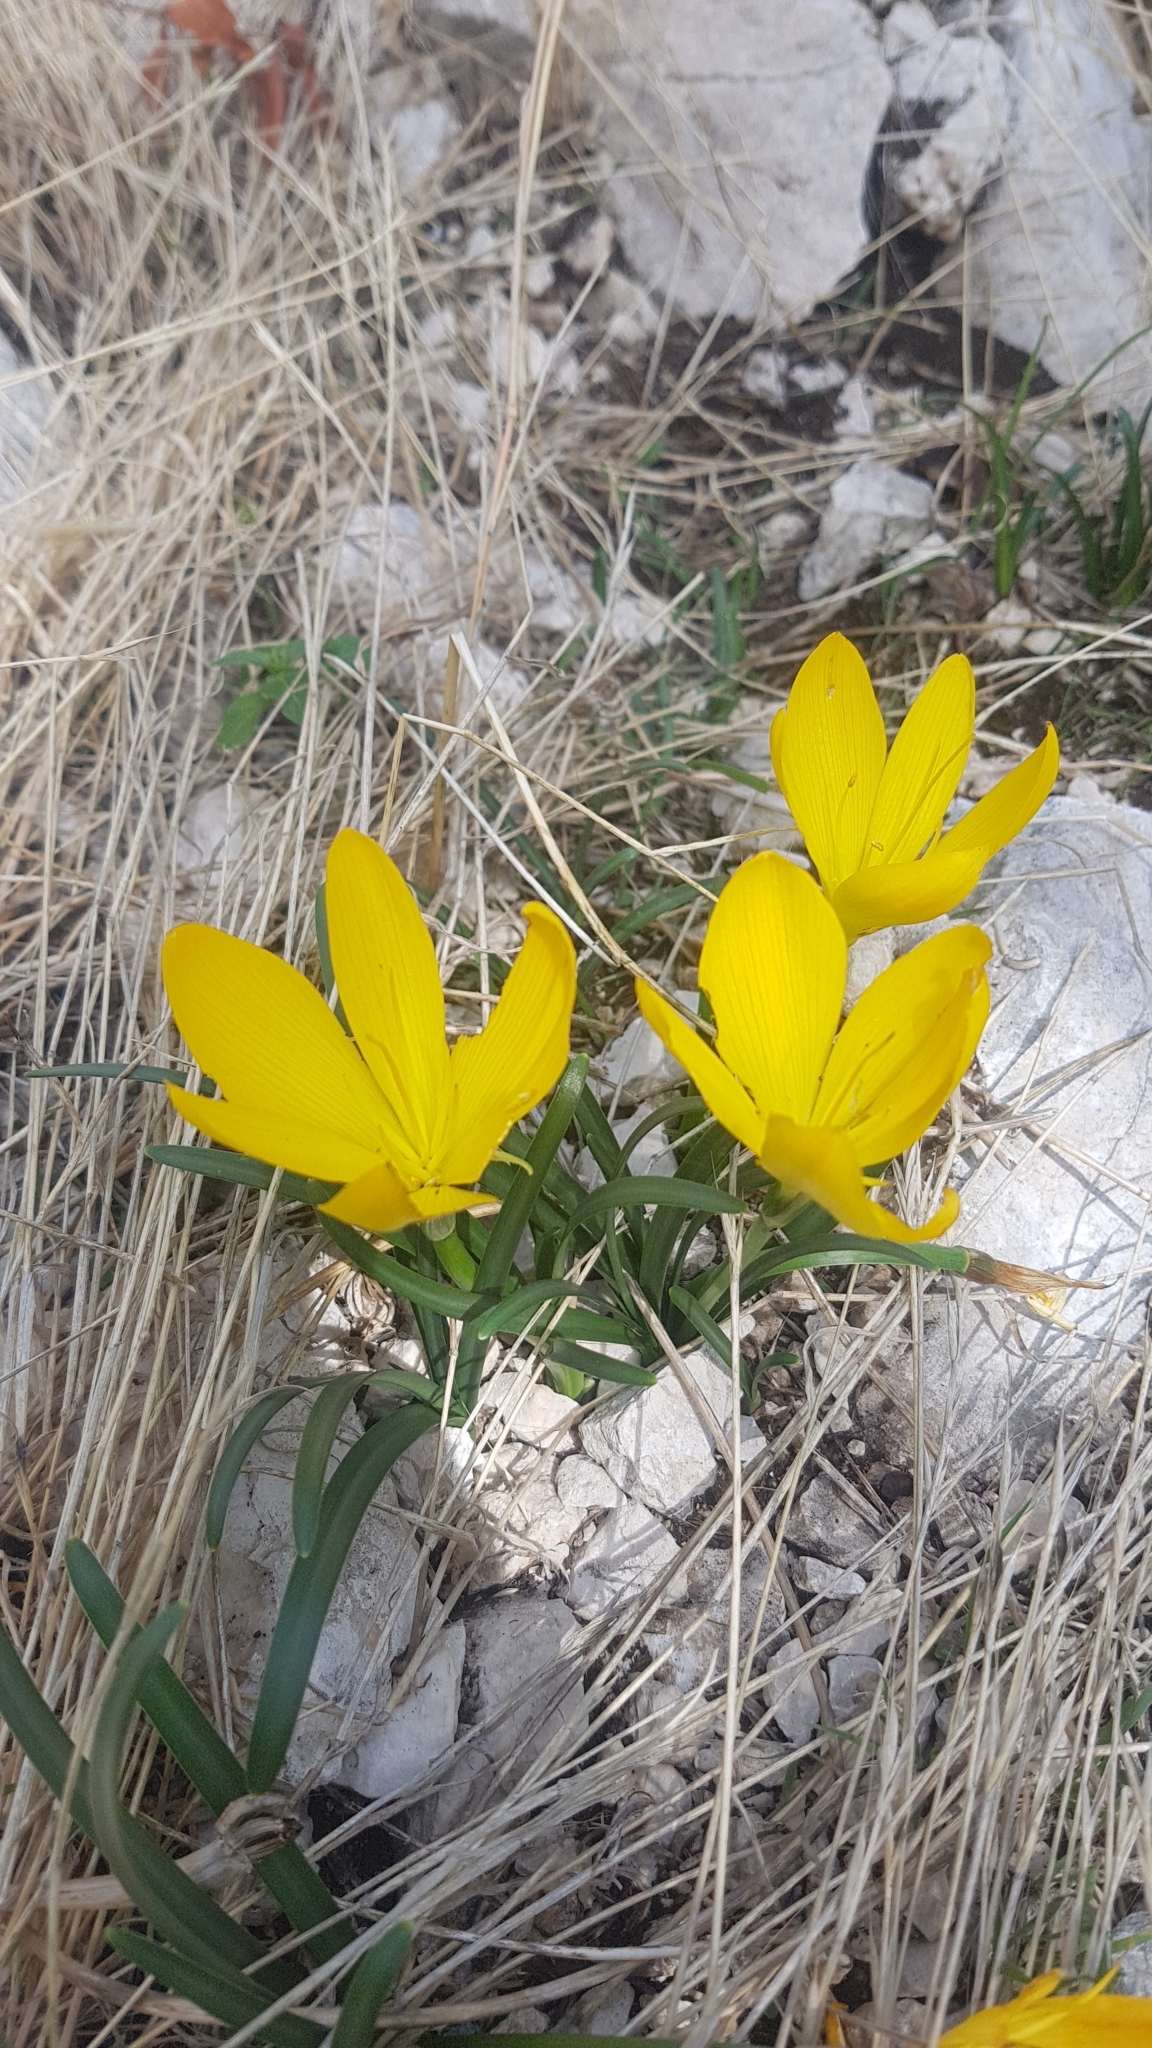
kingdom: Plantae
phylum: Tracheophyta
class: Liliopsida
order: Asparagales
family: Amaryllidaceae
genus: Sternbergia
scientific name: Sternbergia lutea
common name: Winter daffodil
